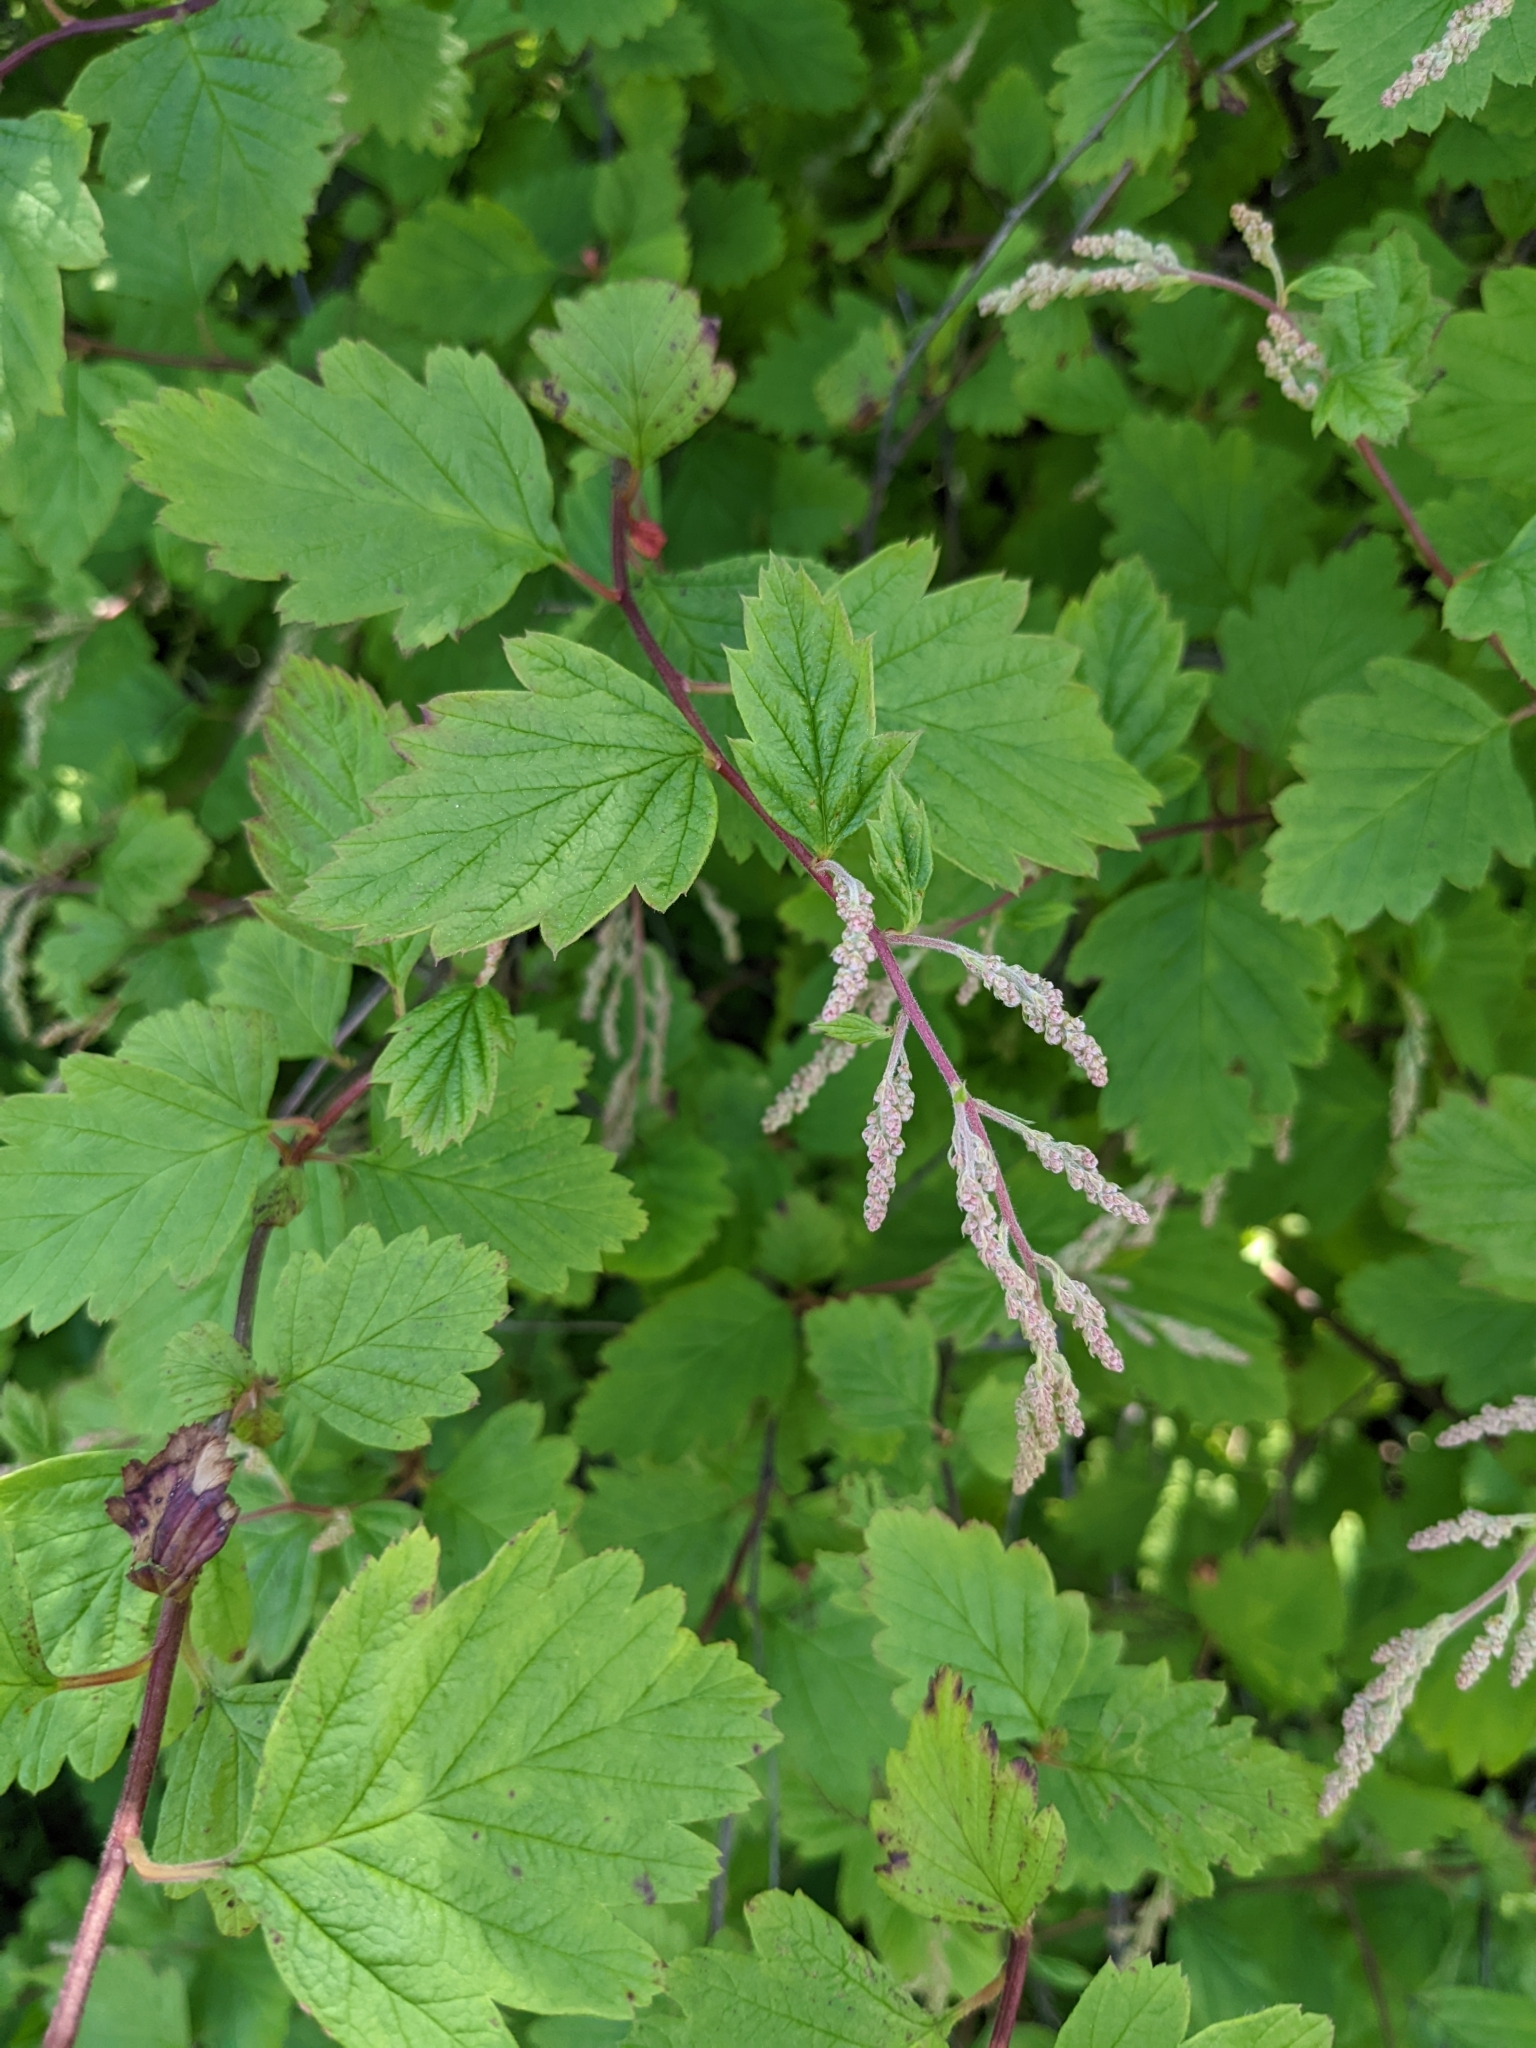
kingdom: Plantae
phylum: Tracheophyta
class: Magnoliopsida
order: Rosales
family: Rosaceae
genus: Holodiscus
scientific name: Holodiscus discolor
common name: Oceanspray
